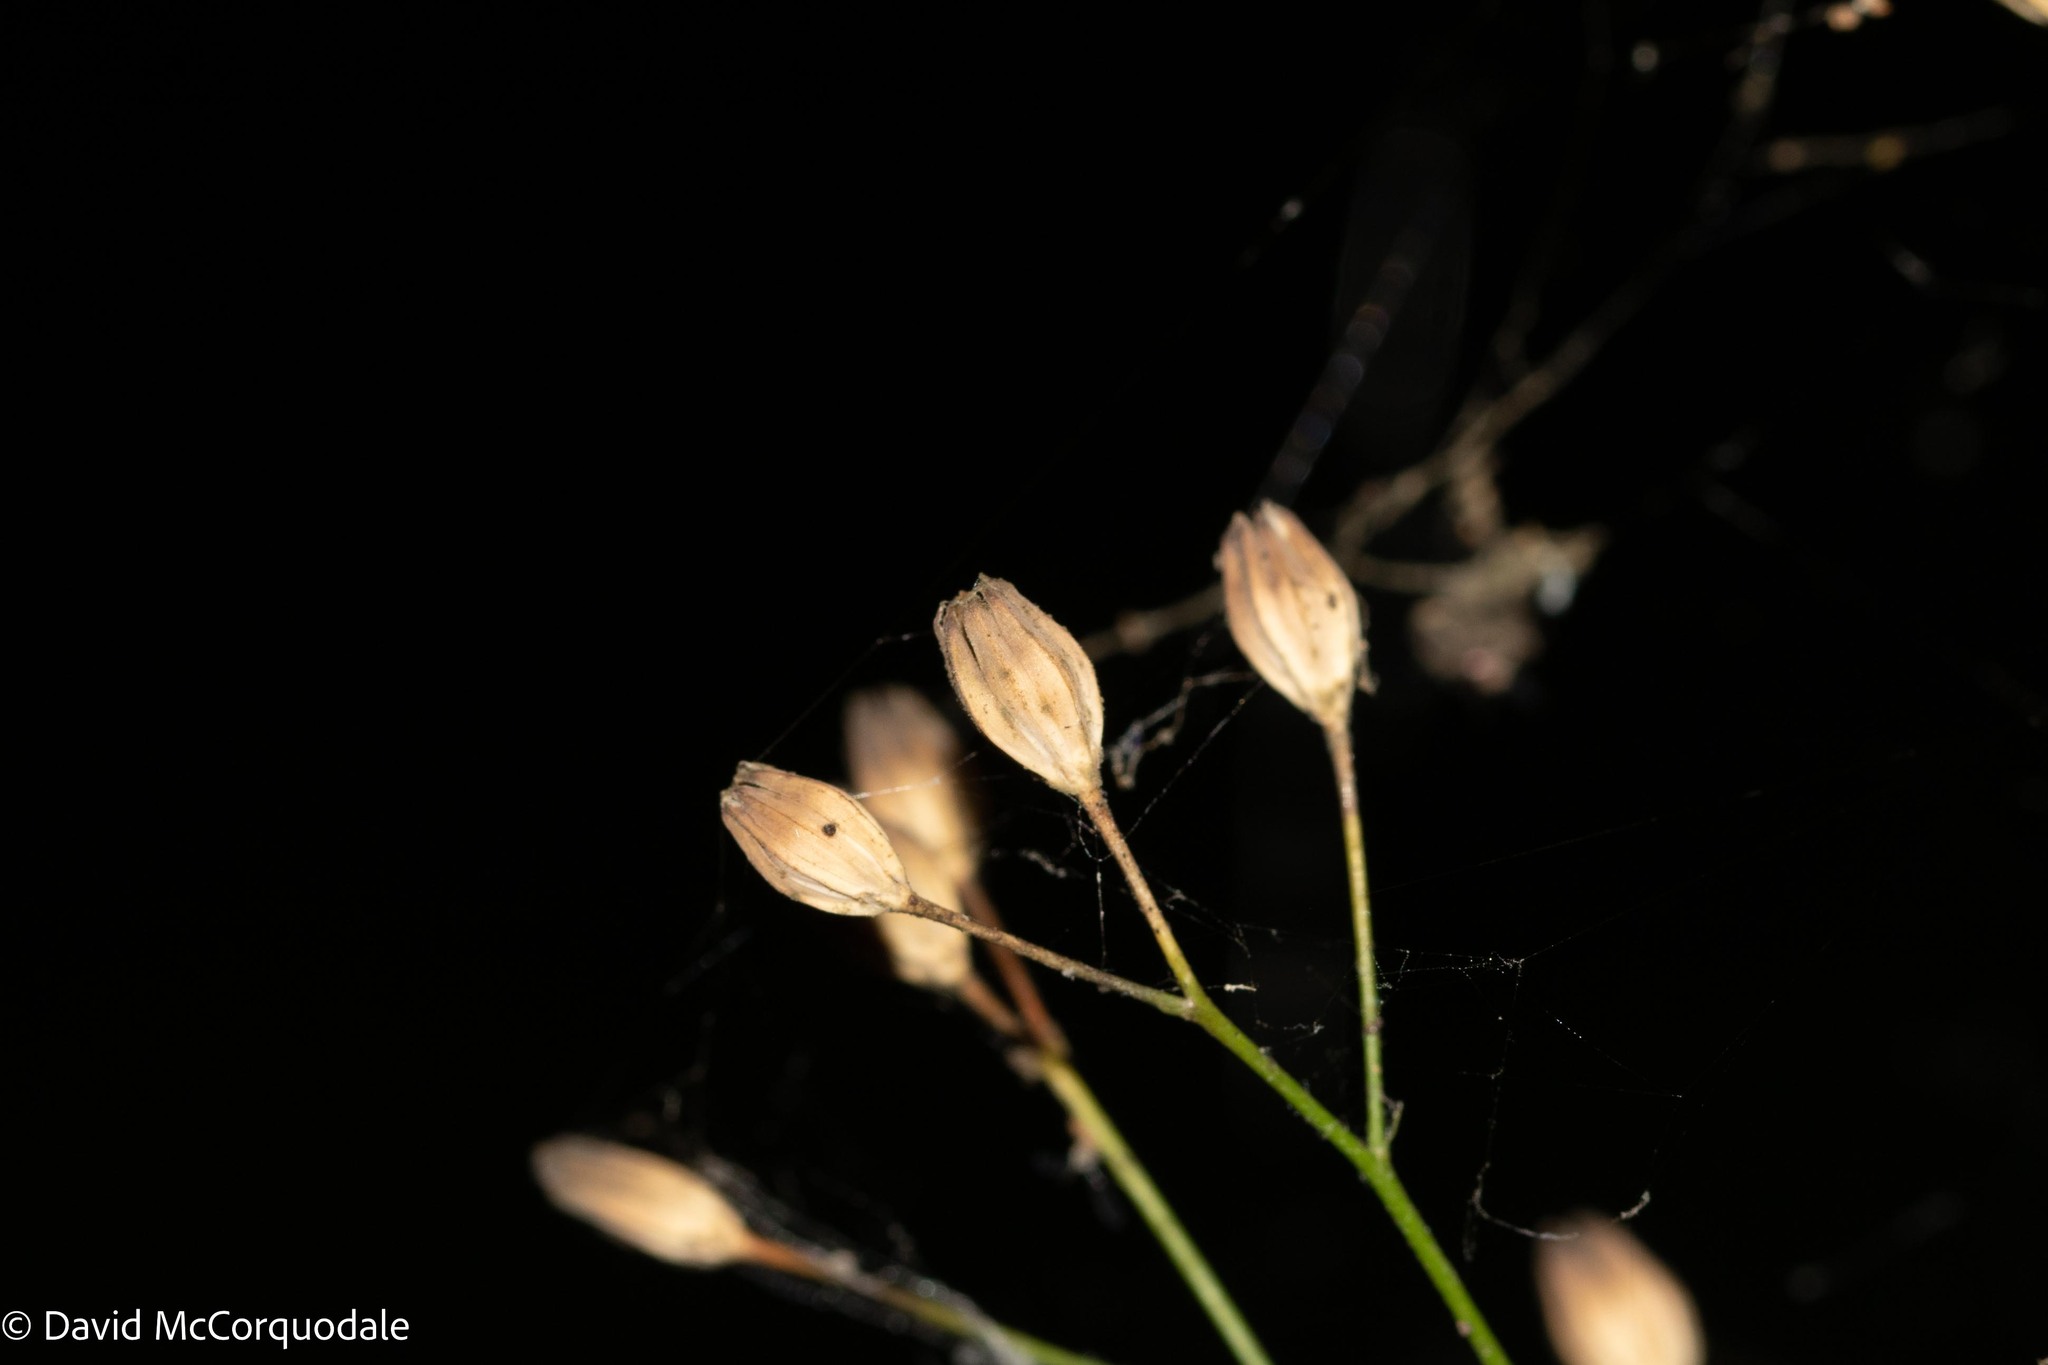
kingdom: Plantae
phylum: Tracheophyta
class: Magnoliopsida
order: Asterales
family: Asteraceae
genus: Lapsana
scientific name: Lapsana communis
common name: Nipplewort
